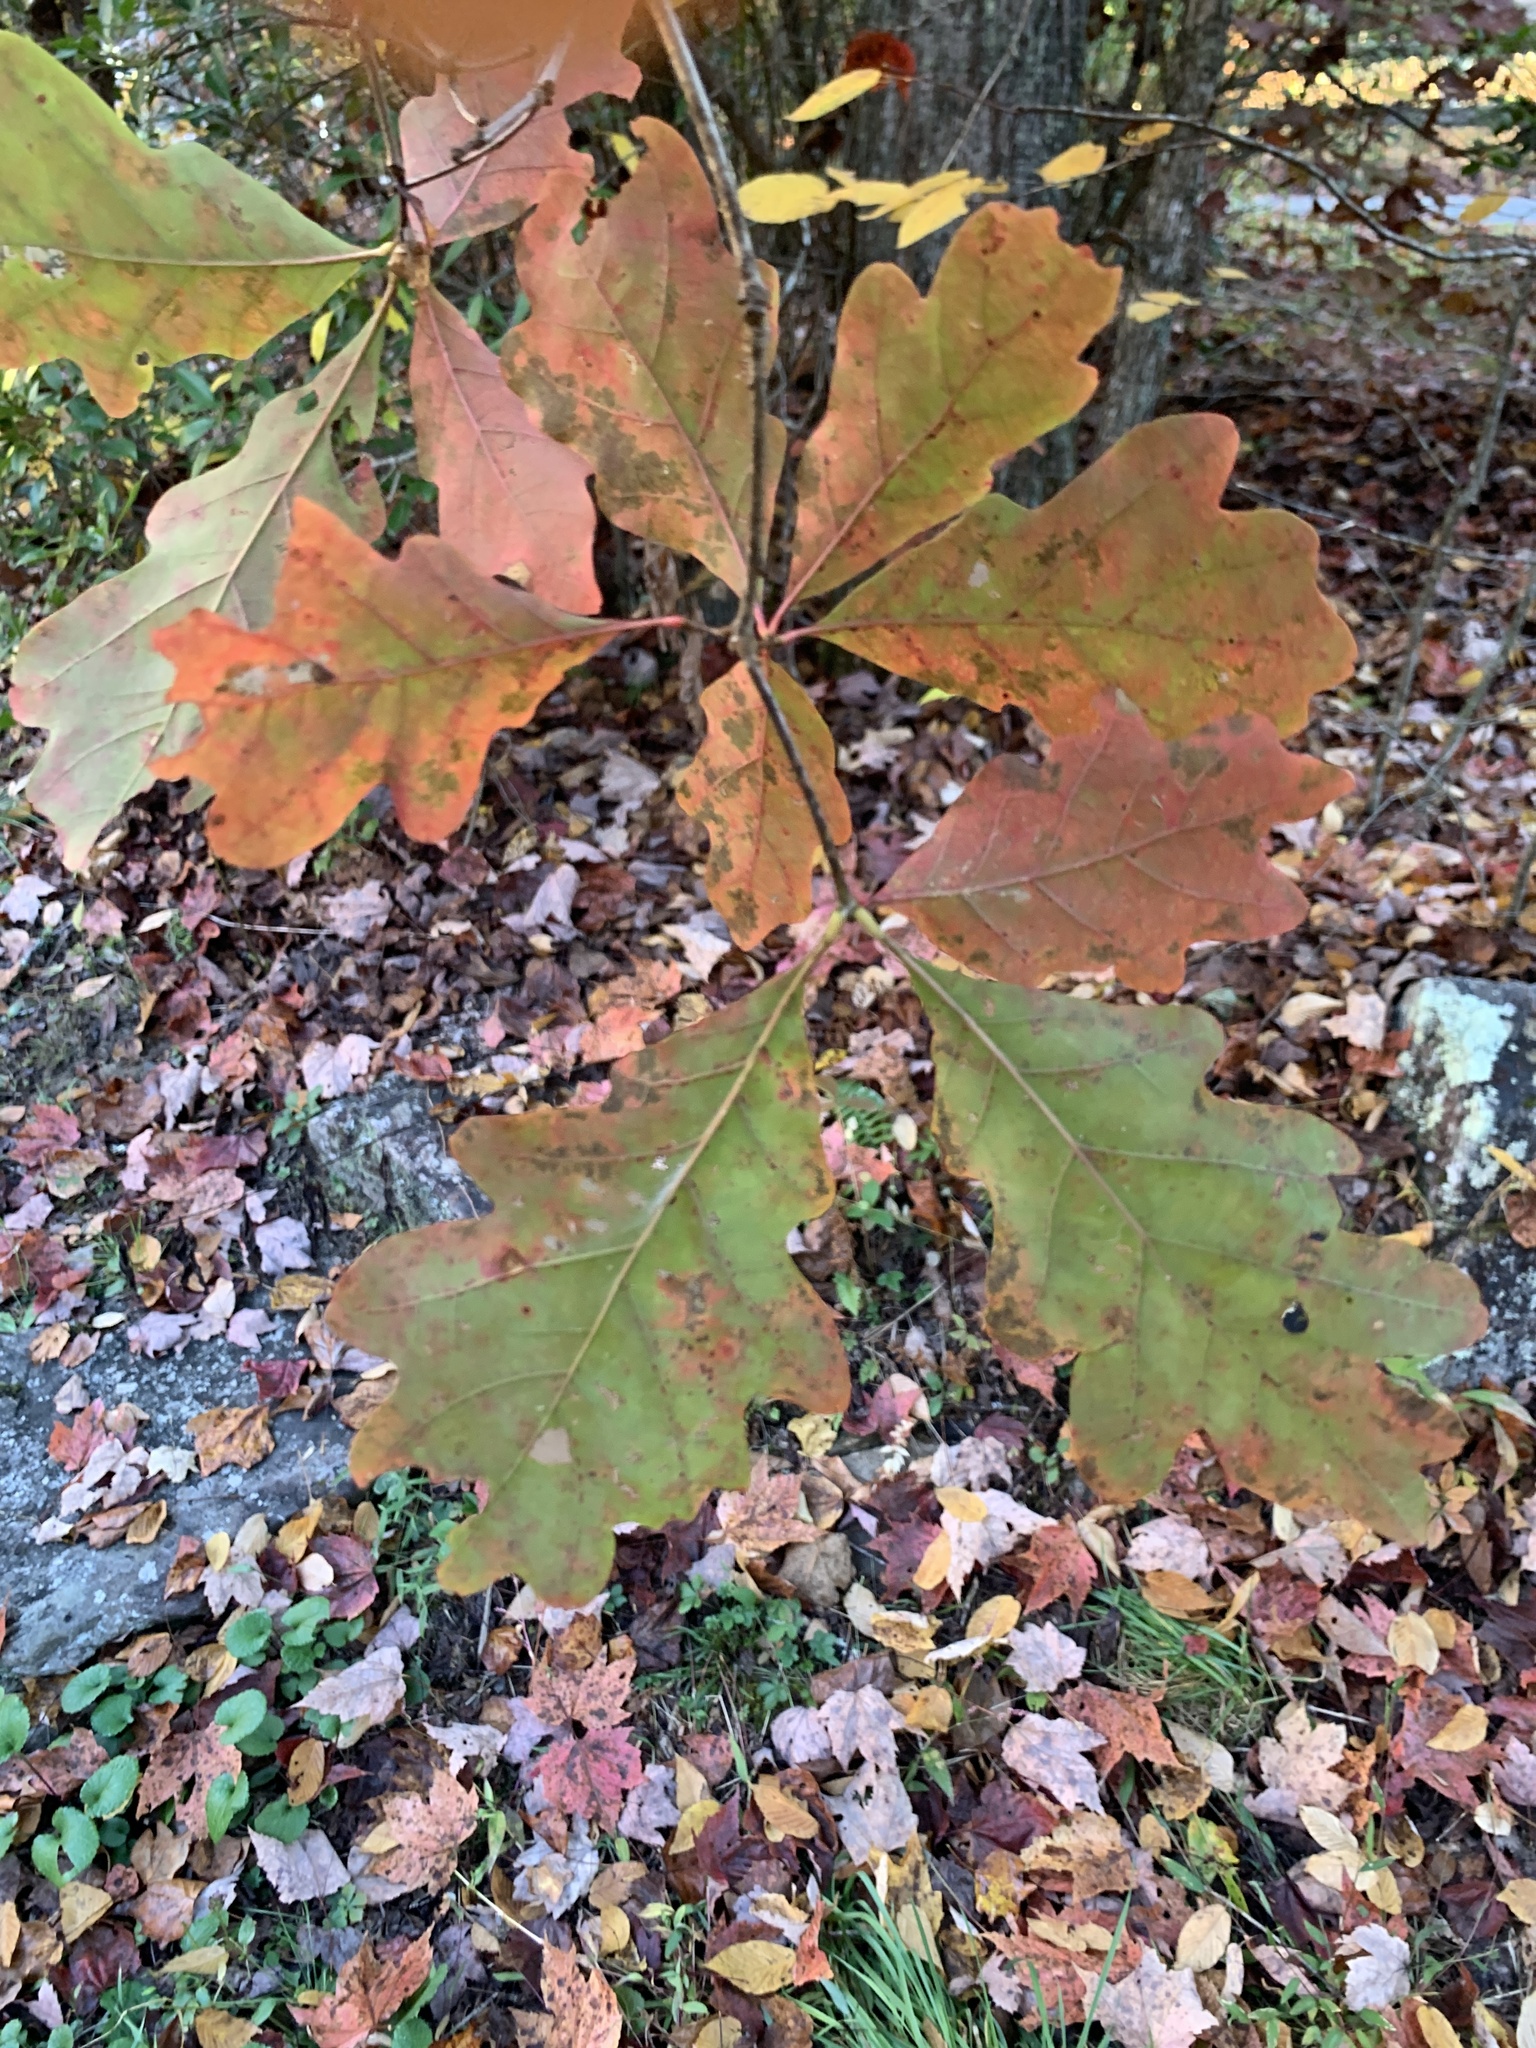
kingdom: Plantae
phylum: Tracheophyta
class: Magnoliopsida
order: Fagales
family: Fagaceae
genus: Quercus
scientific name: Quercus alba
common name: White oak
